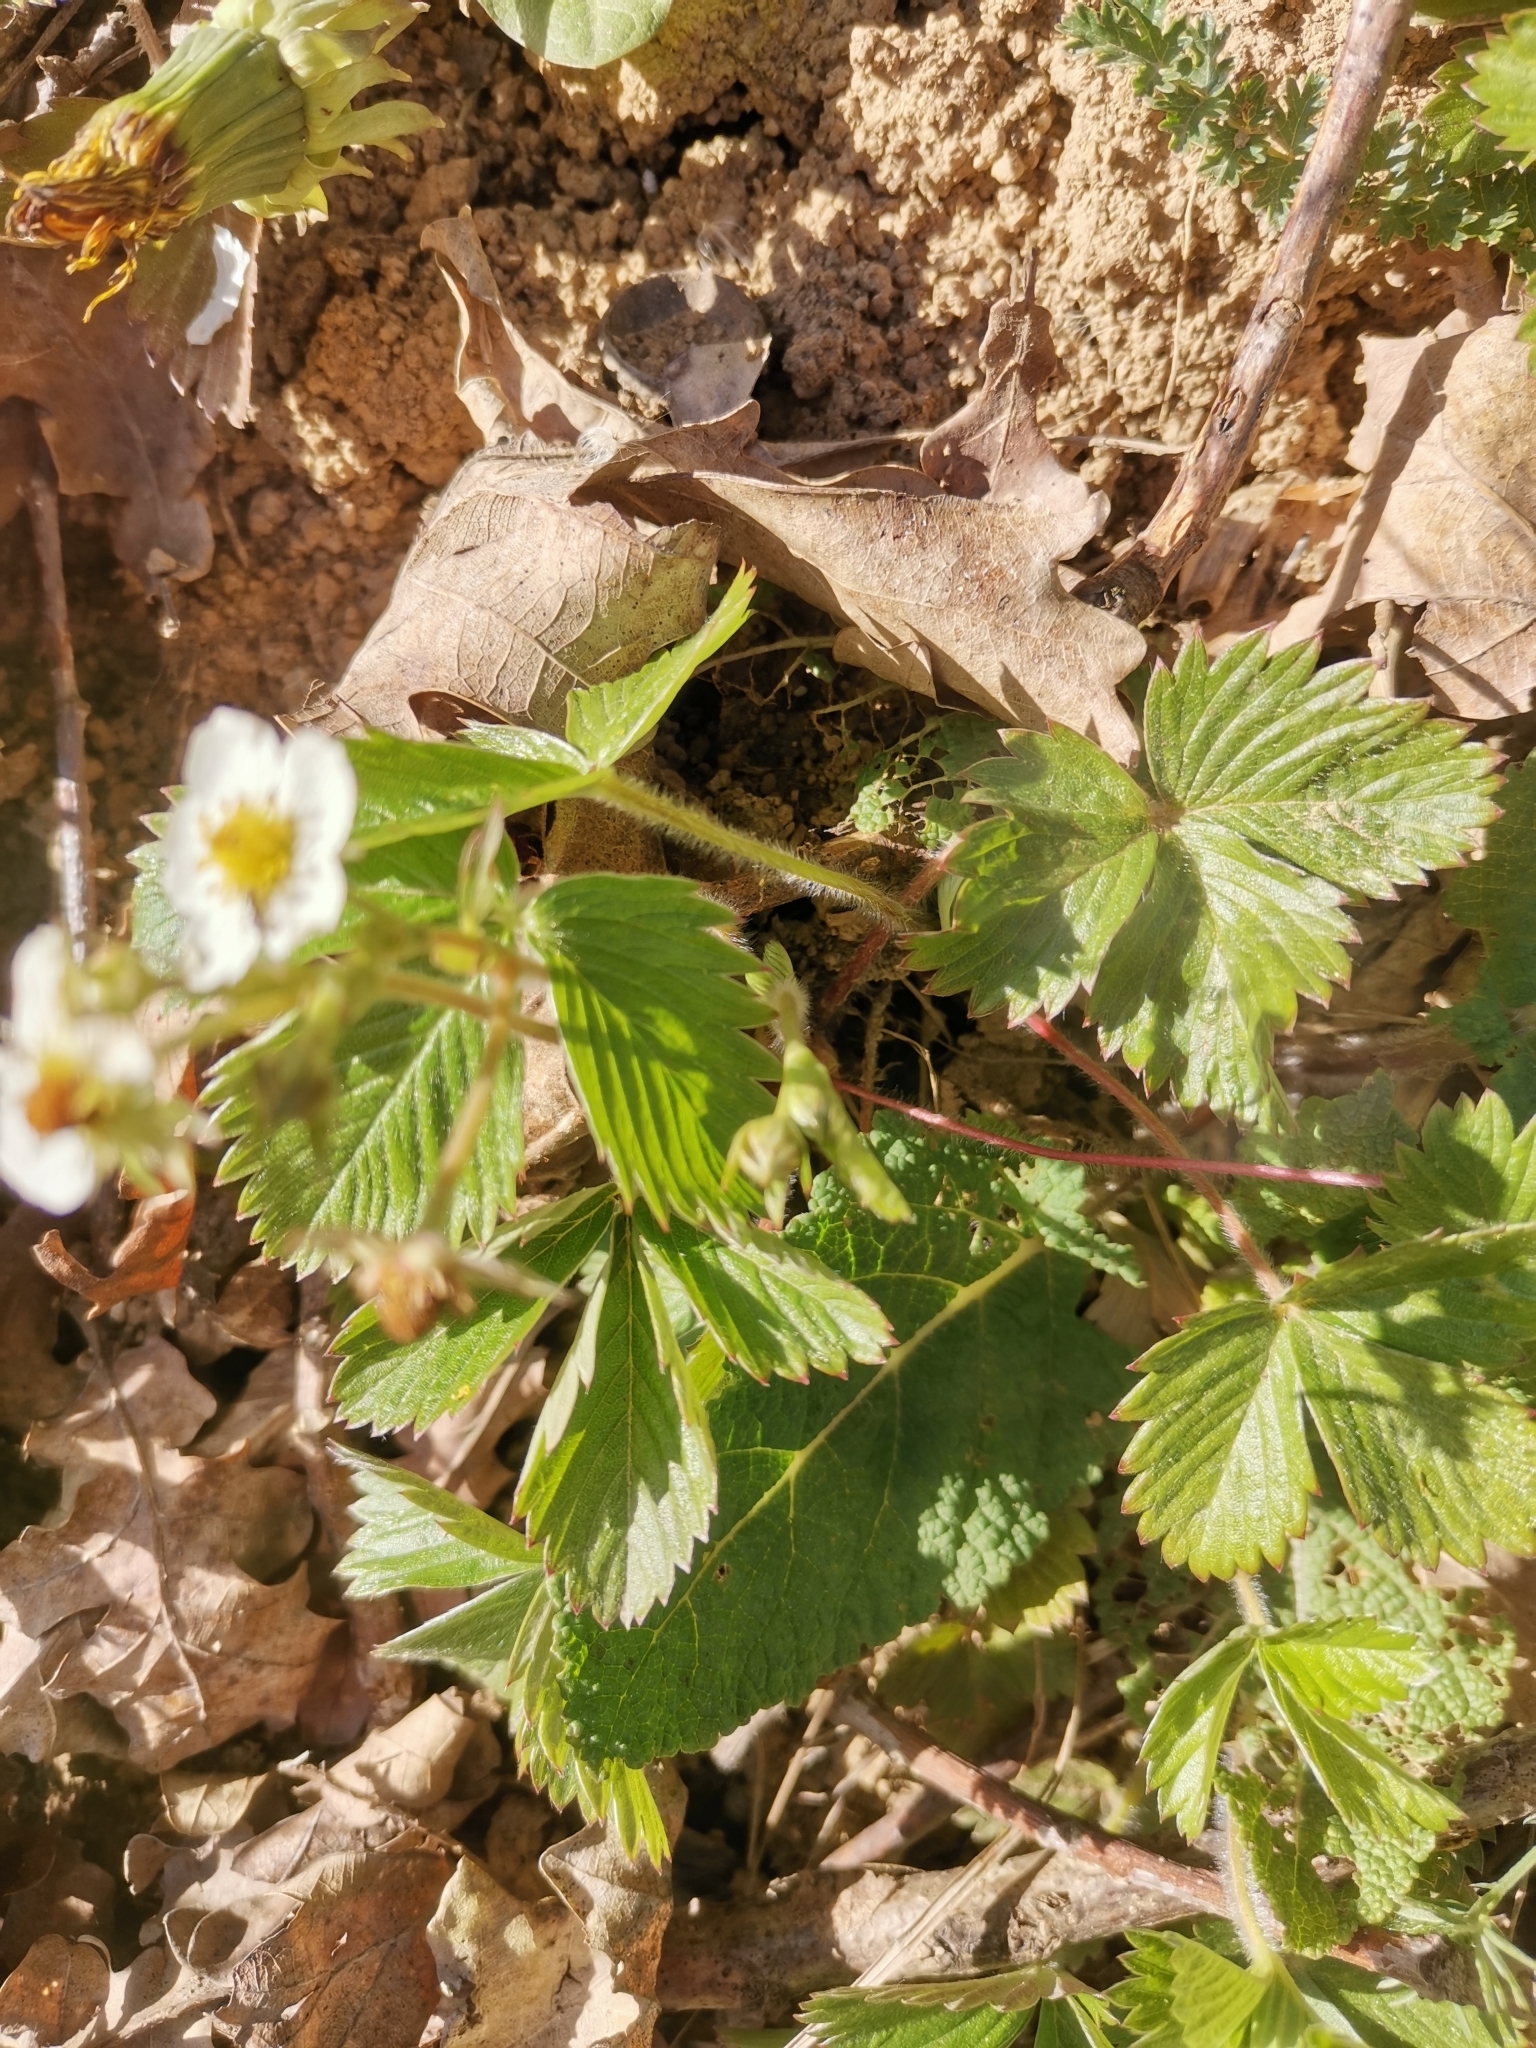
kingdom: Plantae
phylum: Tracheophyta
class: Magnoliopsida
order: Rosales
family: Rosaceae
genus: Fragaria
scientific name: Fragaria vesca
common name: Wild strawberry
